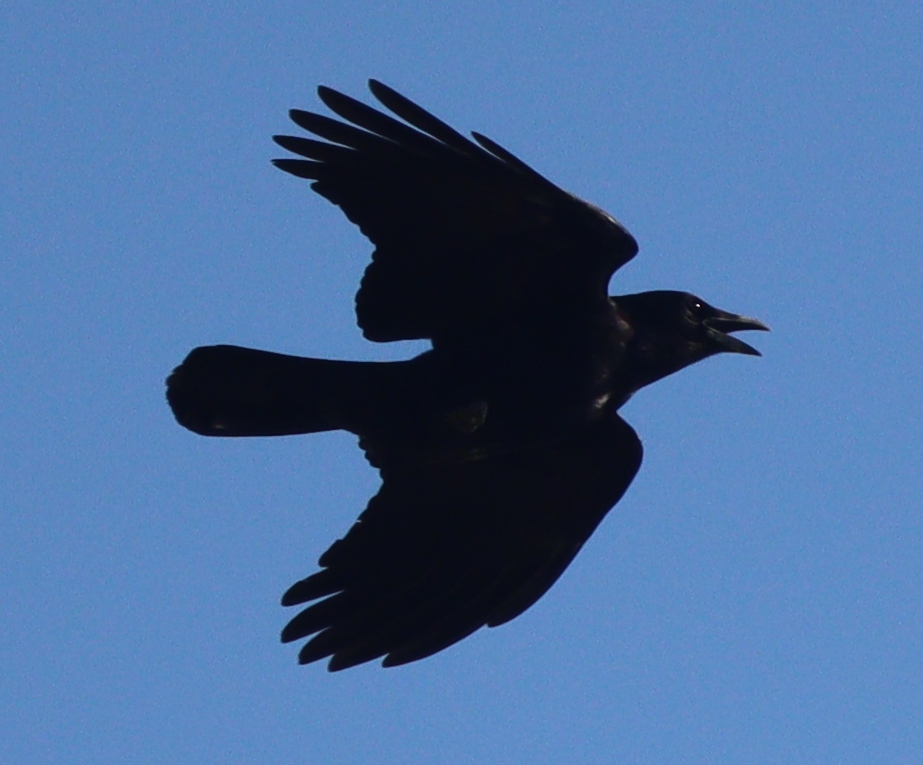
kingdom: Animalia
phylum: Chordata
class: Aves
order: Passeriformes
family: Corvidae
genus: Corvus
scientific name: Corvus corone
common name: Carrion crow
